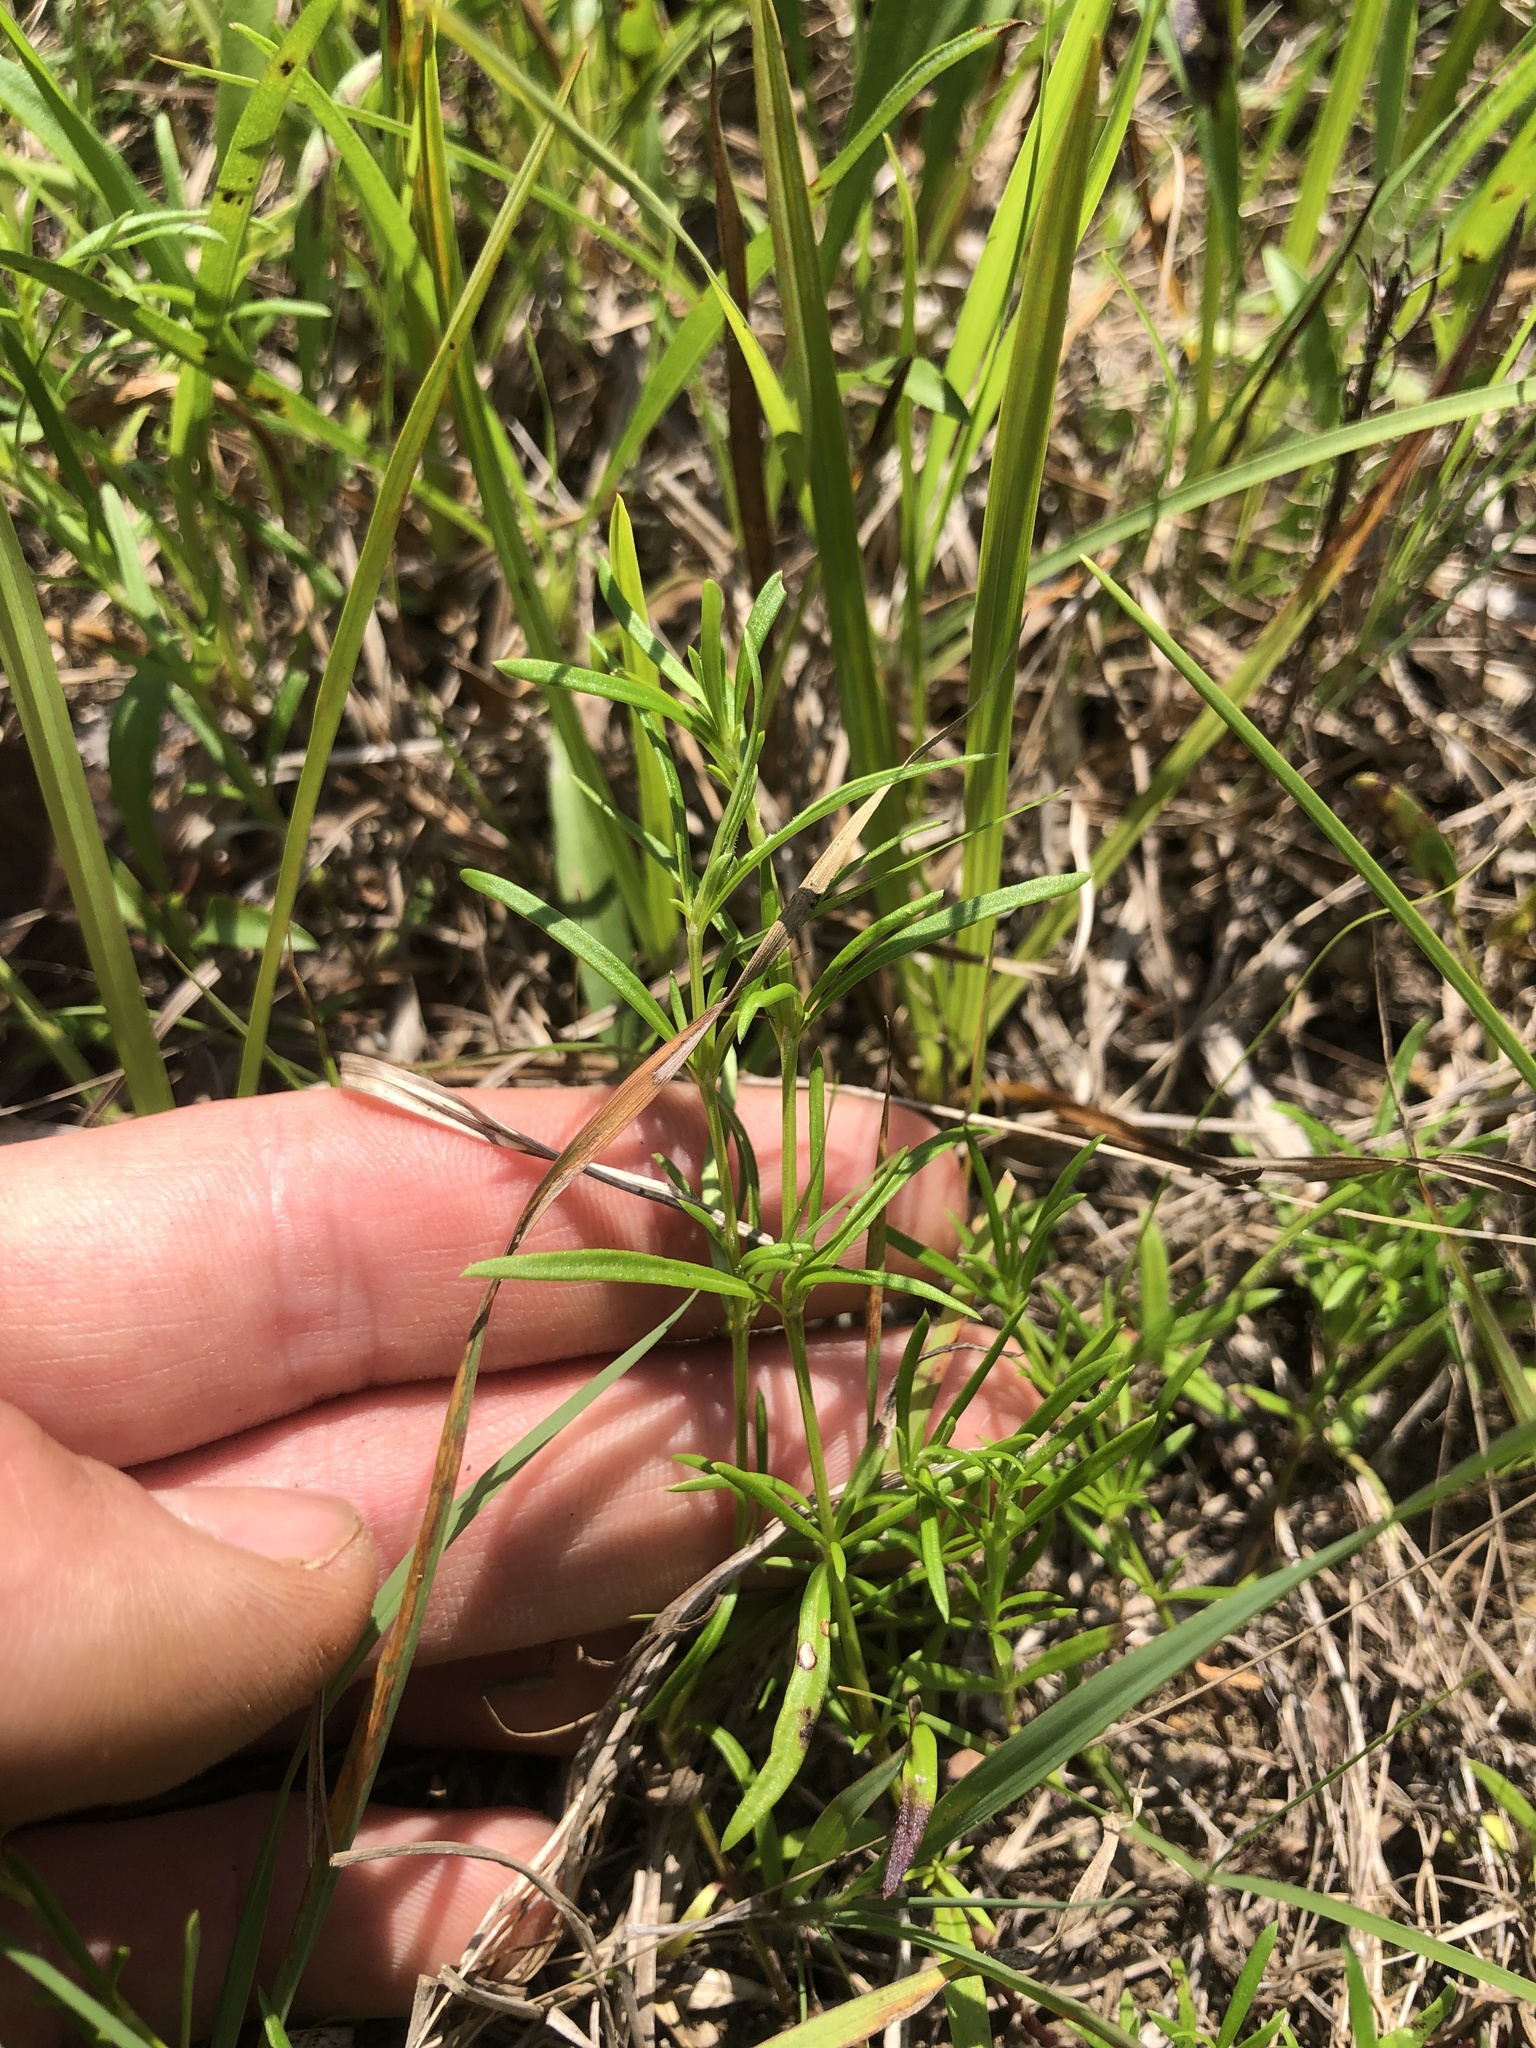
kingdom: Plantae
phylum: Tracheophyta
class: Magnoliopsida
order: Gentianales
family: Rubiaceae
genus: Stenaria
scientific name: Stenaria nigricans
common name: Diamondflowers
